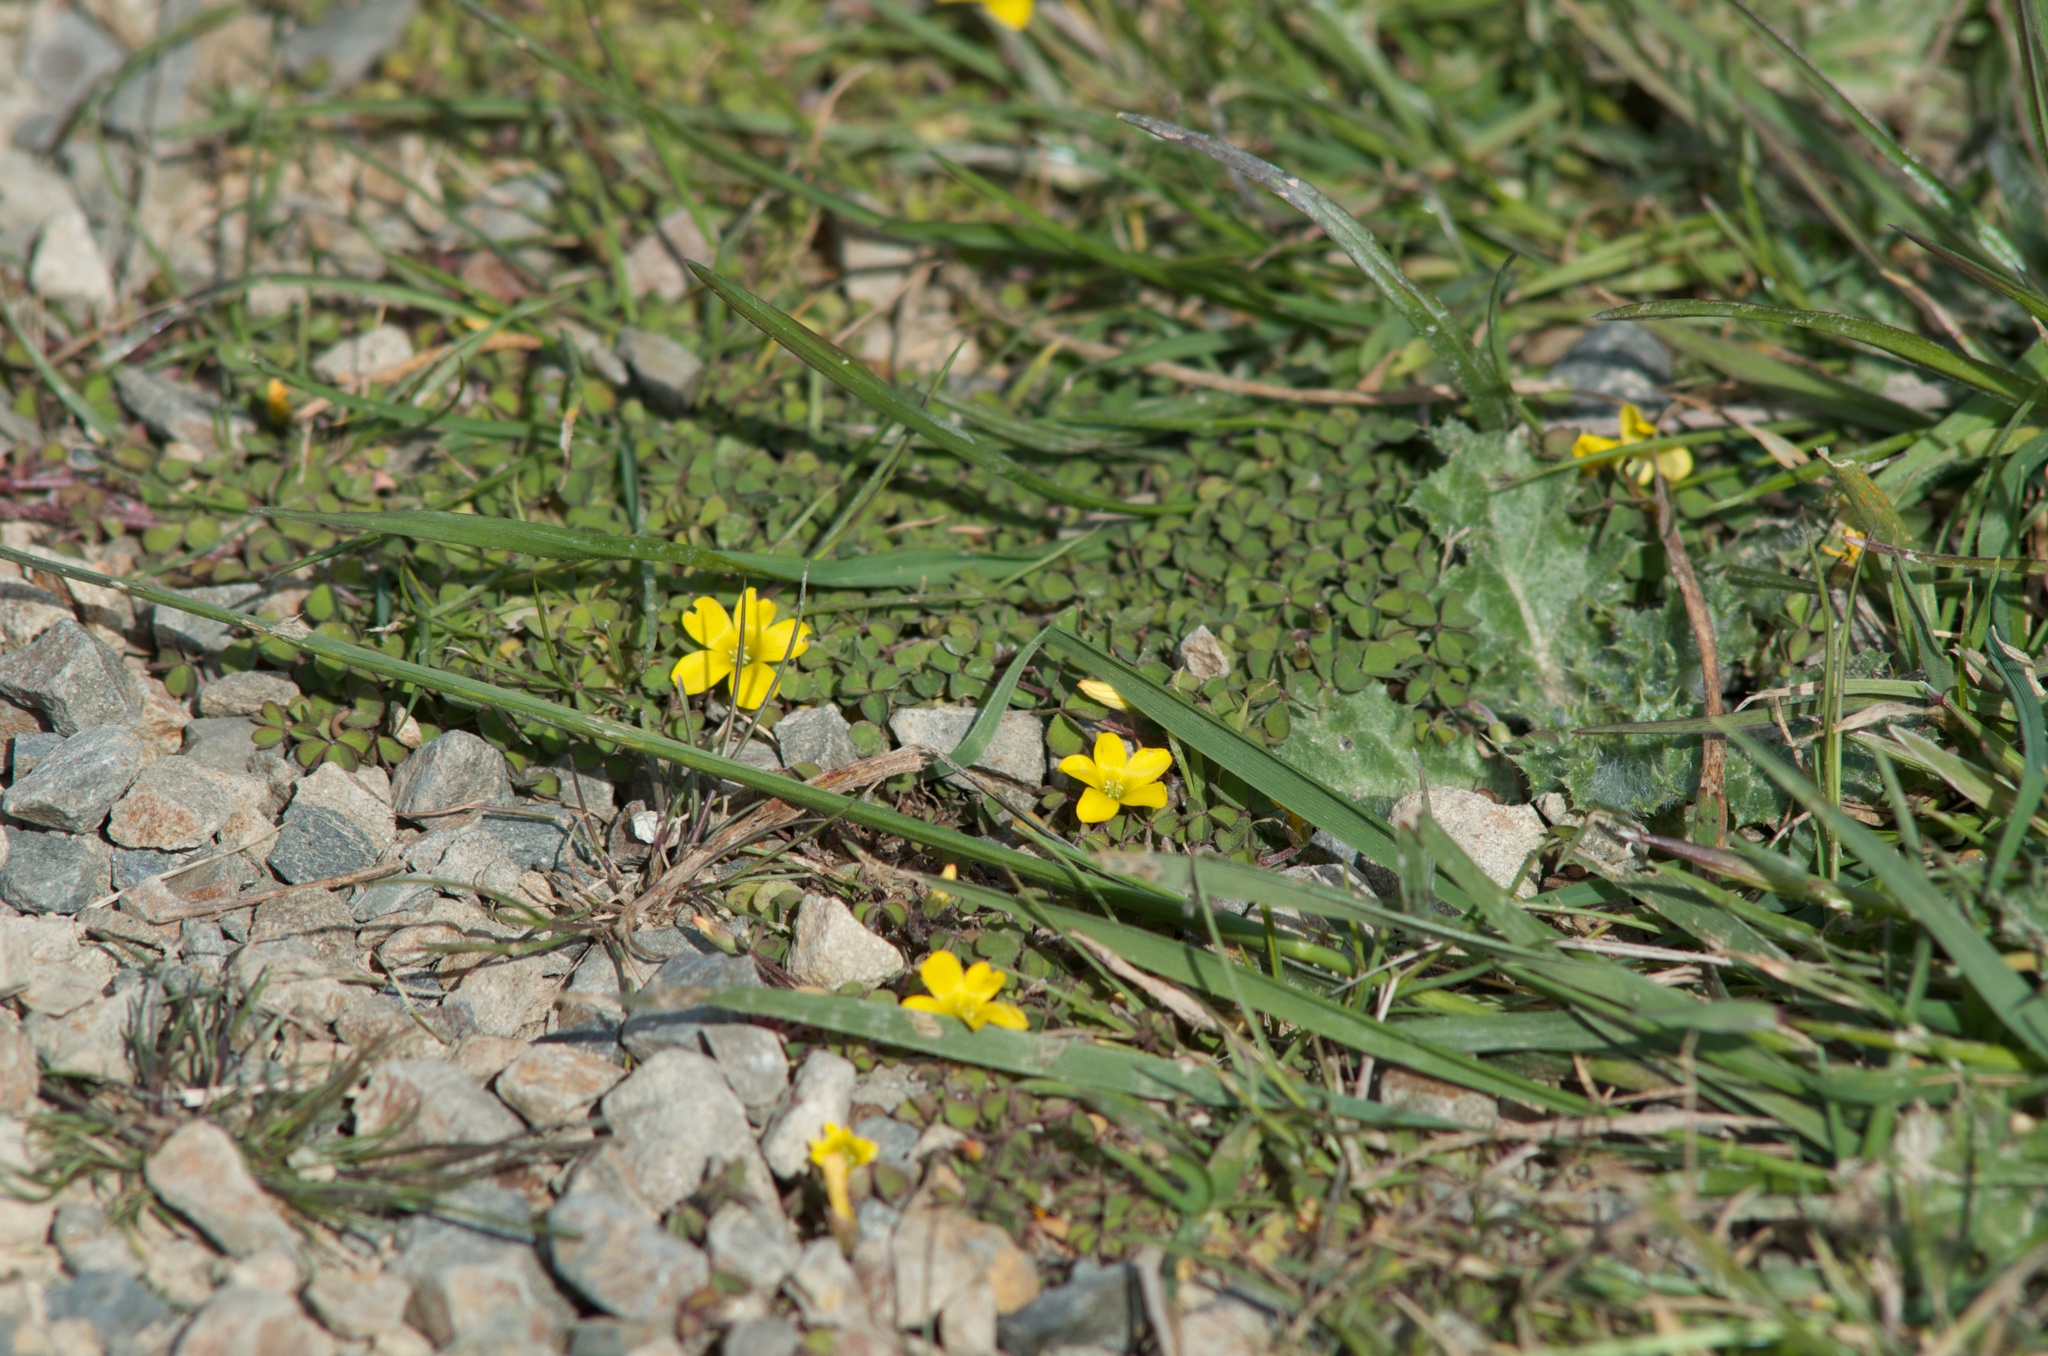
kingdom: Plantae
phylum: Tracheophyta
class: Magnoliopsida
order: Oxalidales
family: Oxalidaceae
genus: Oxalis
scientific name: Oxalis exilis
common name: Least yellow-sorrel
